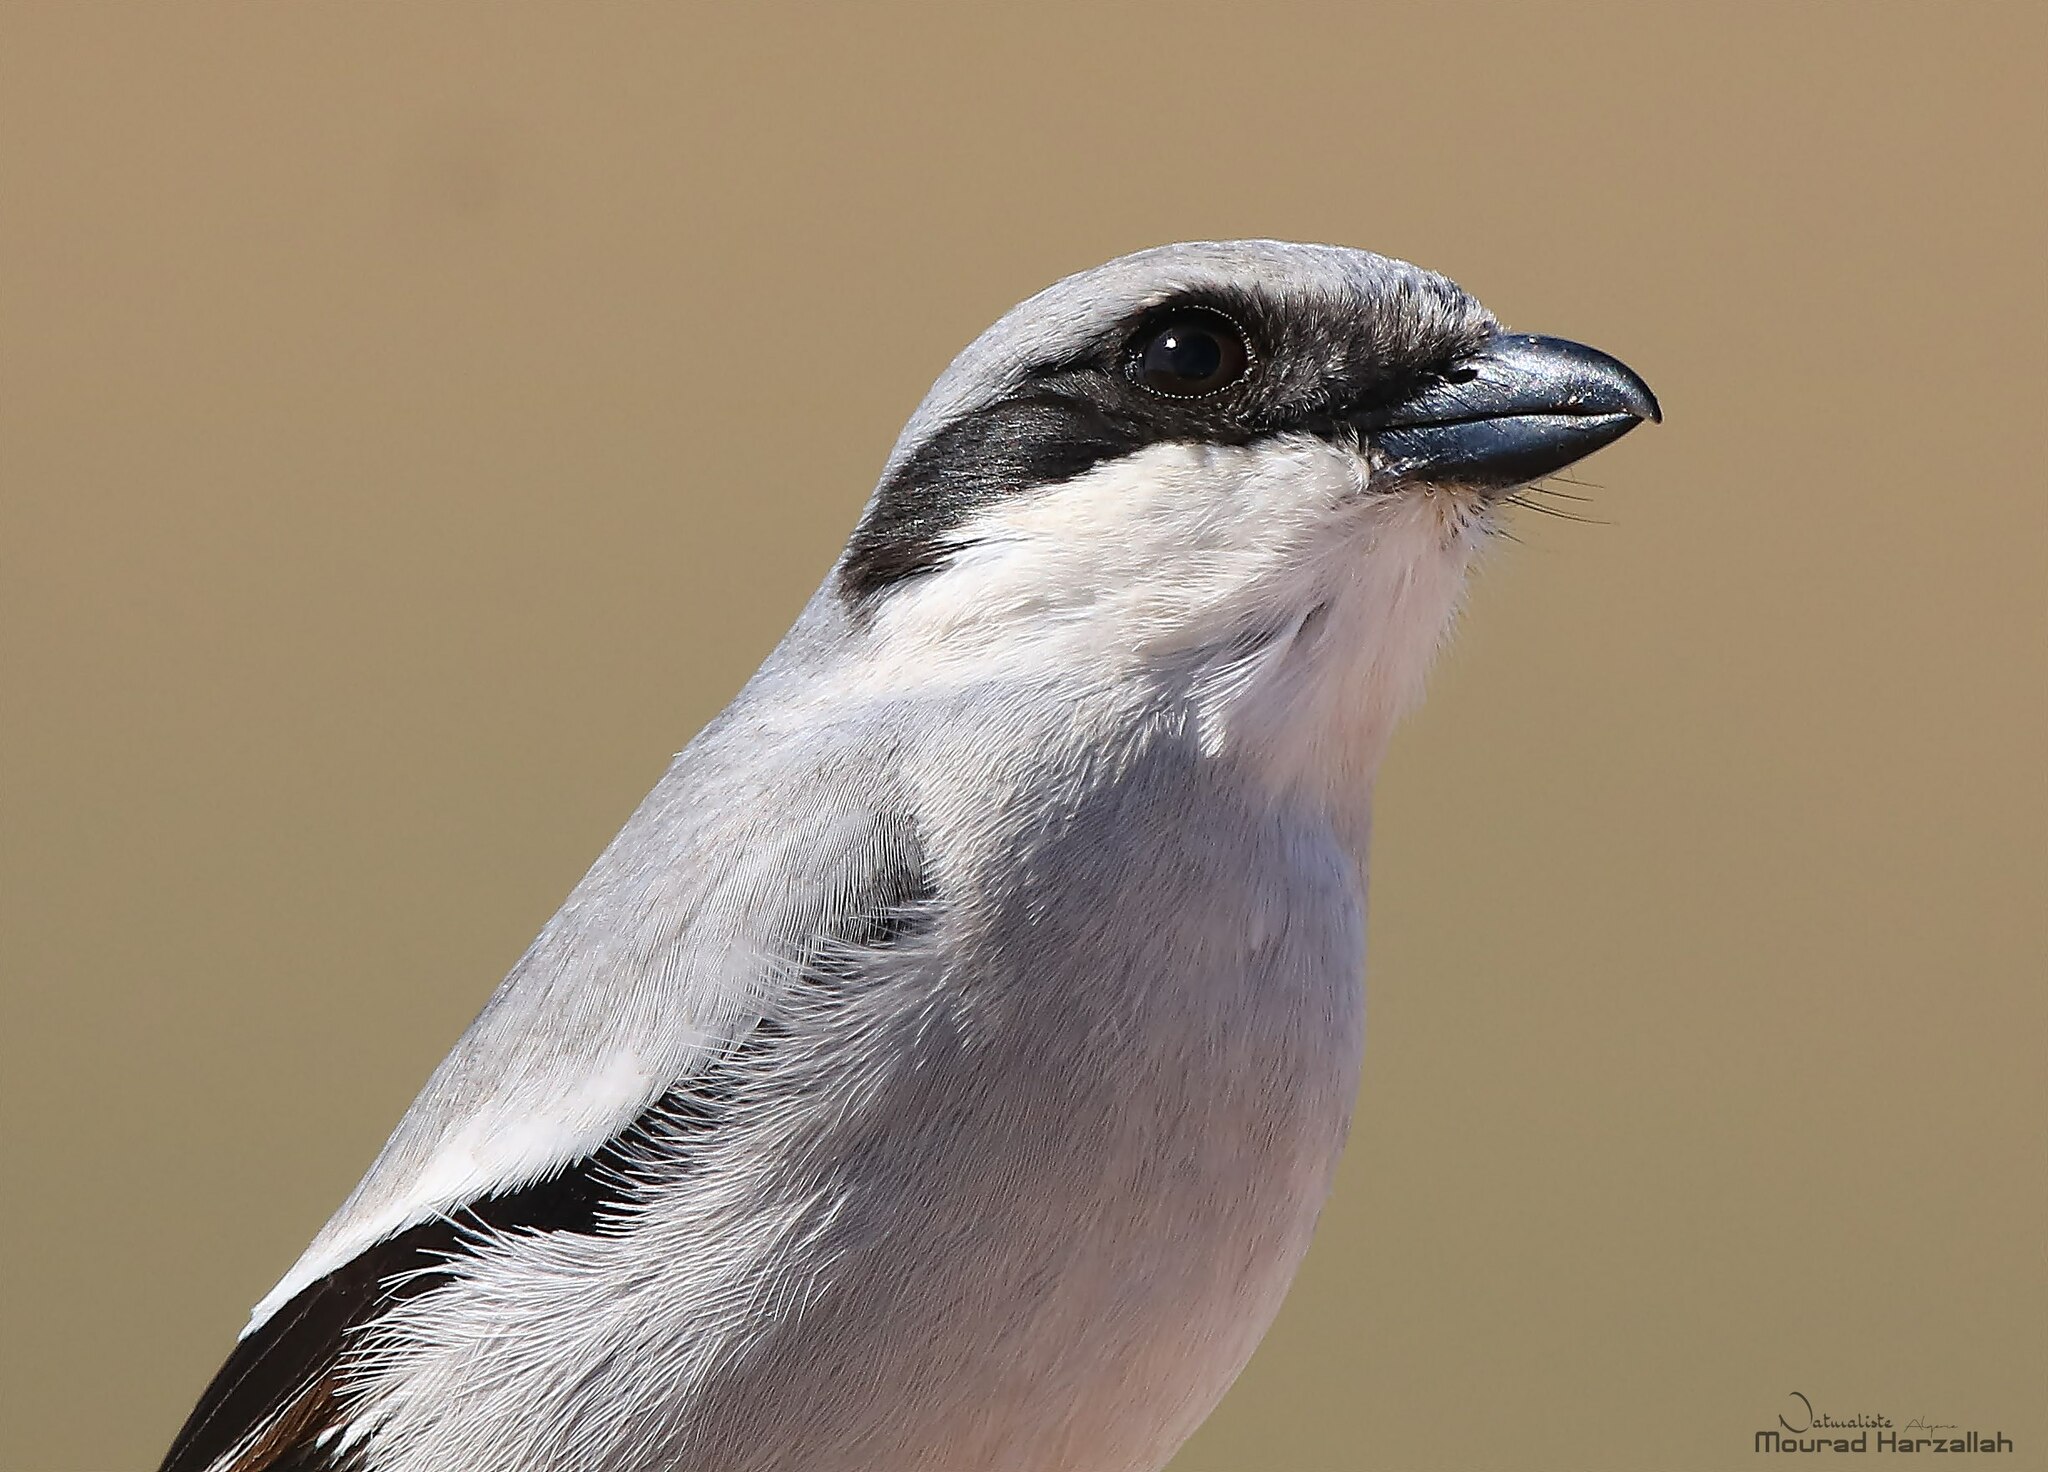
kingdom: Animalia
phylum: Chordata
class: Aves
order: Passeriformes
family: Laniidae
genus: Lanius
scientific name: Lanius excubitor
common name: Great grey shrike
